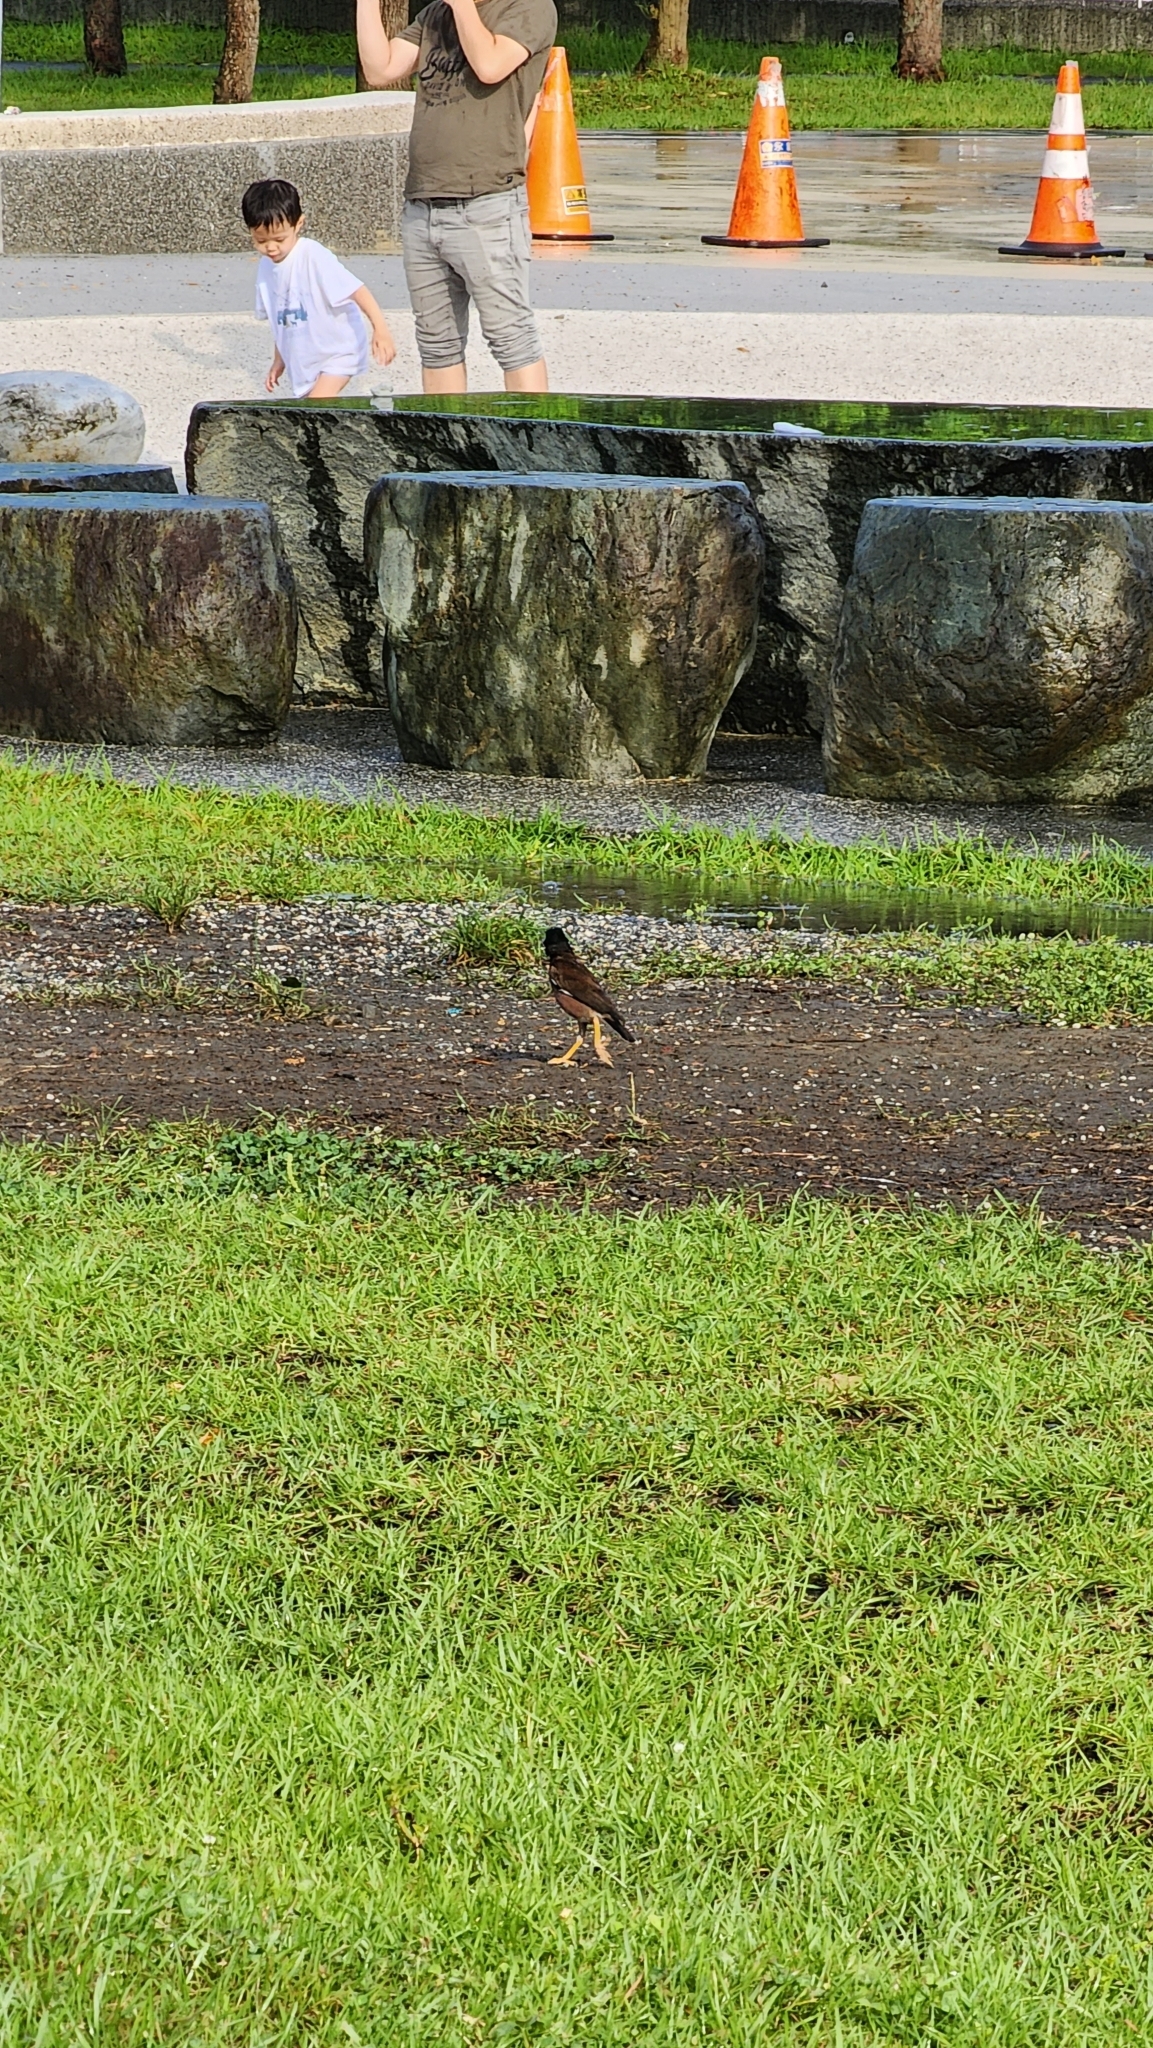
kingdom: Animalia
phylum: Chordata
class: Aves
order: Passeriformes
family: Sturnidae
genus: Acridotheres
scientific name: Acridotheres tristis
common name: Common myna
